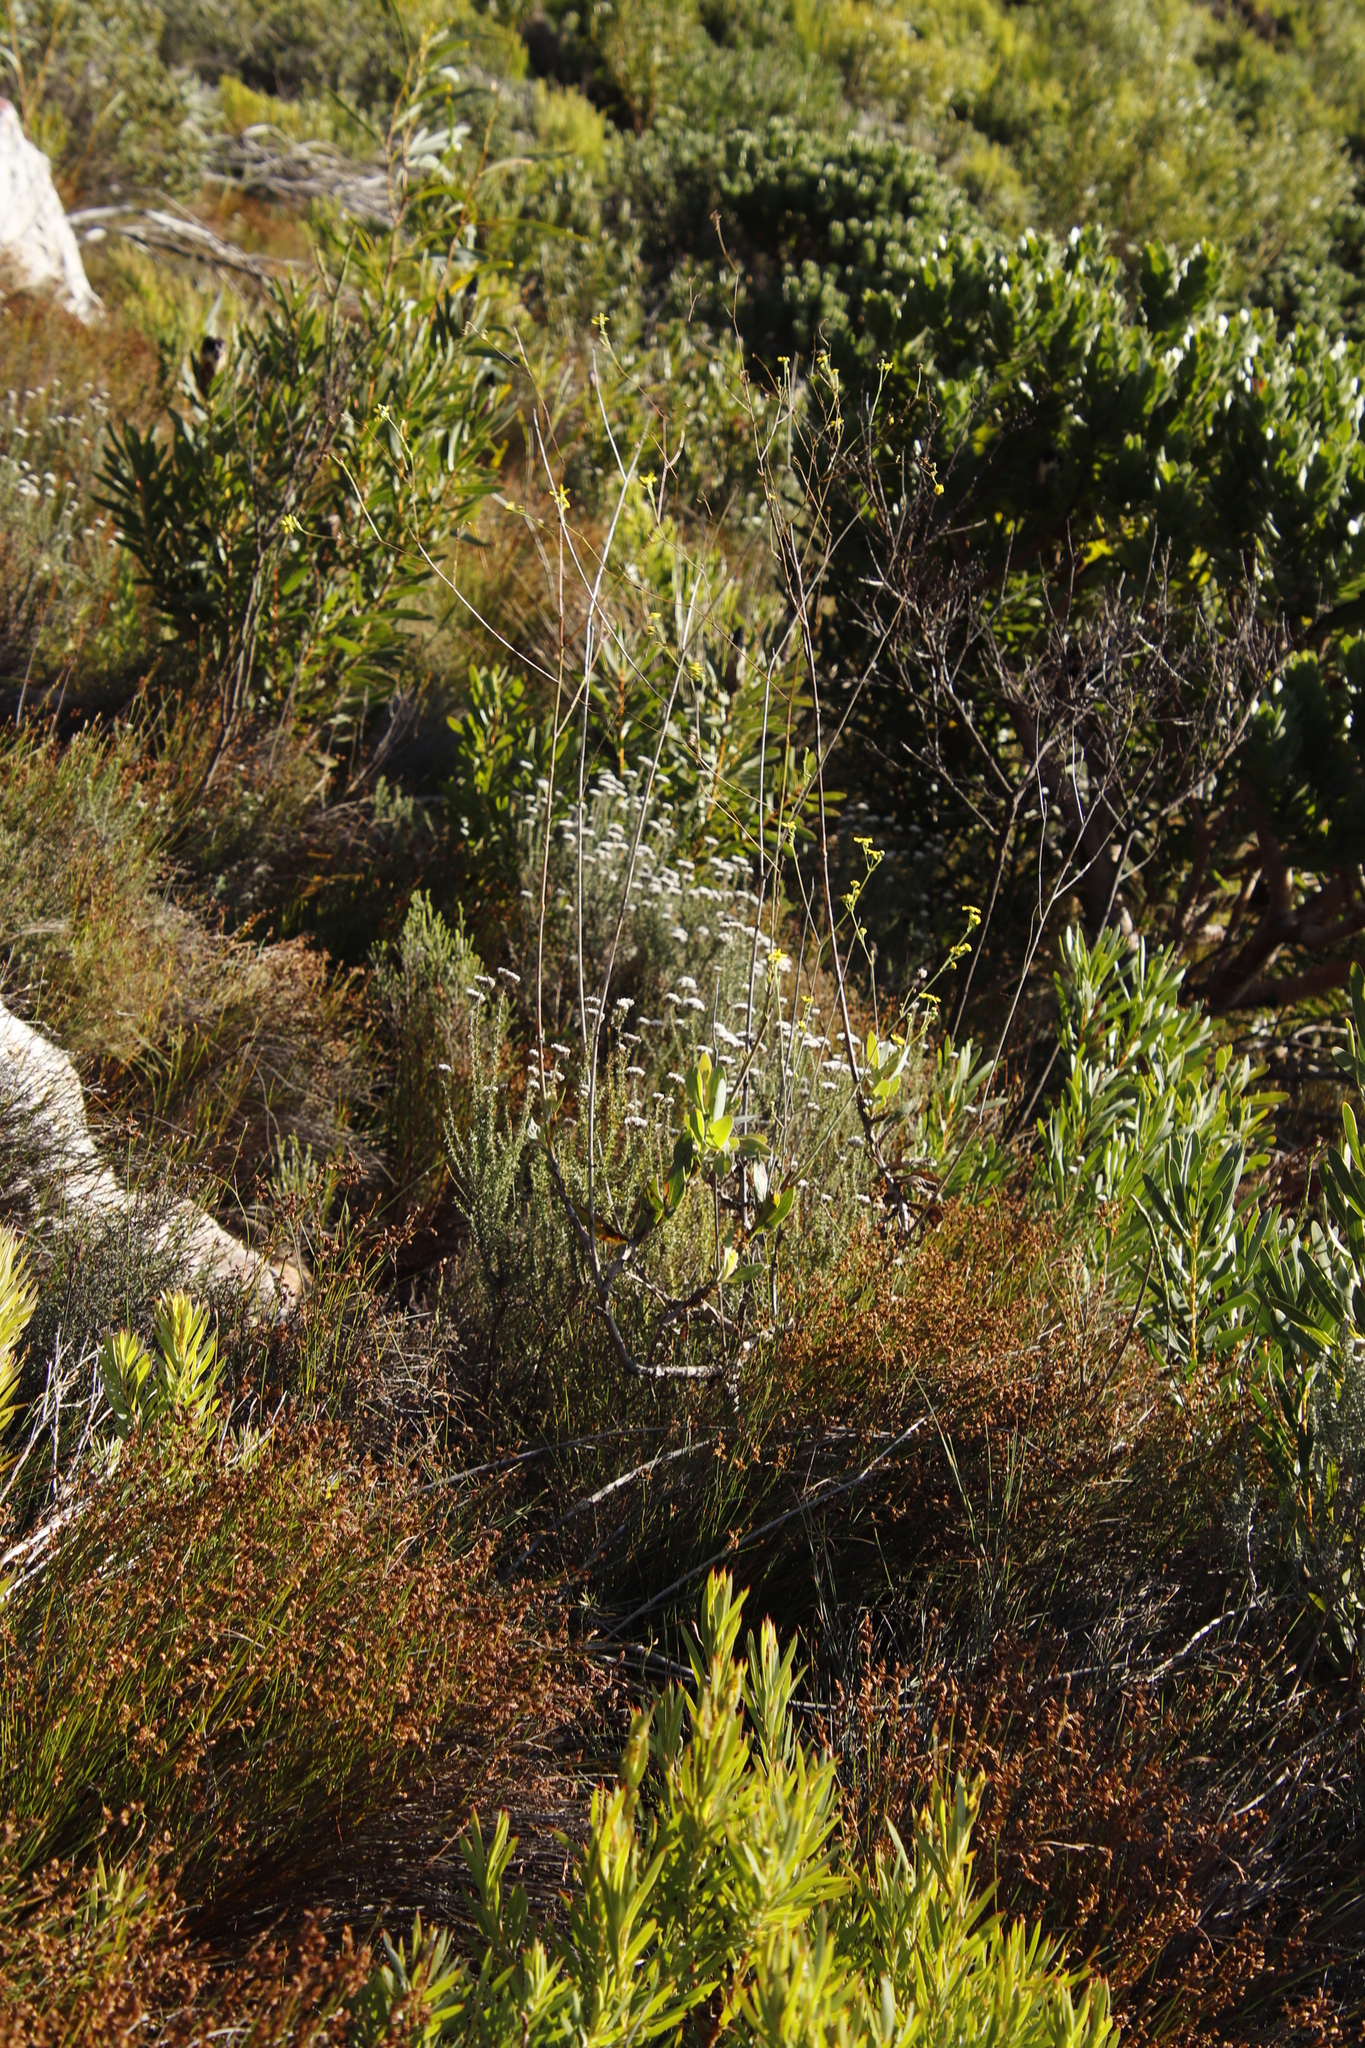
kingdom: Plantae
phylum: Tracheophyta
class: Magnoliopsida
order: Asterales
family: Asteraceae
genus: Othonna
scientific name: Othonna quinquedentata
